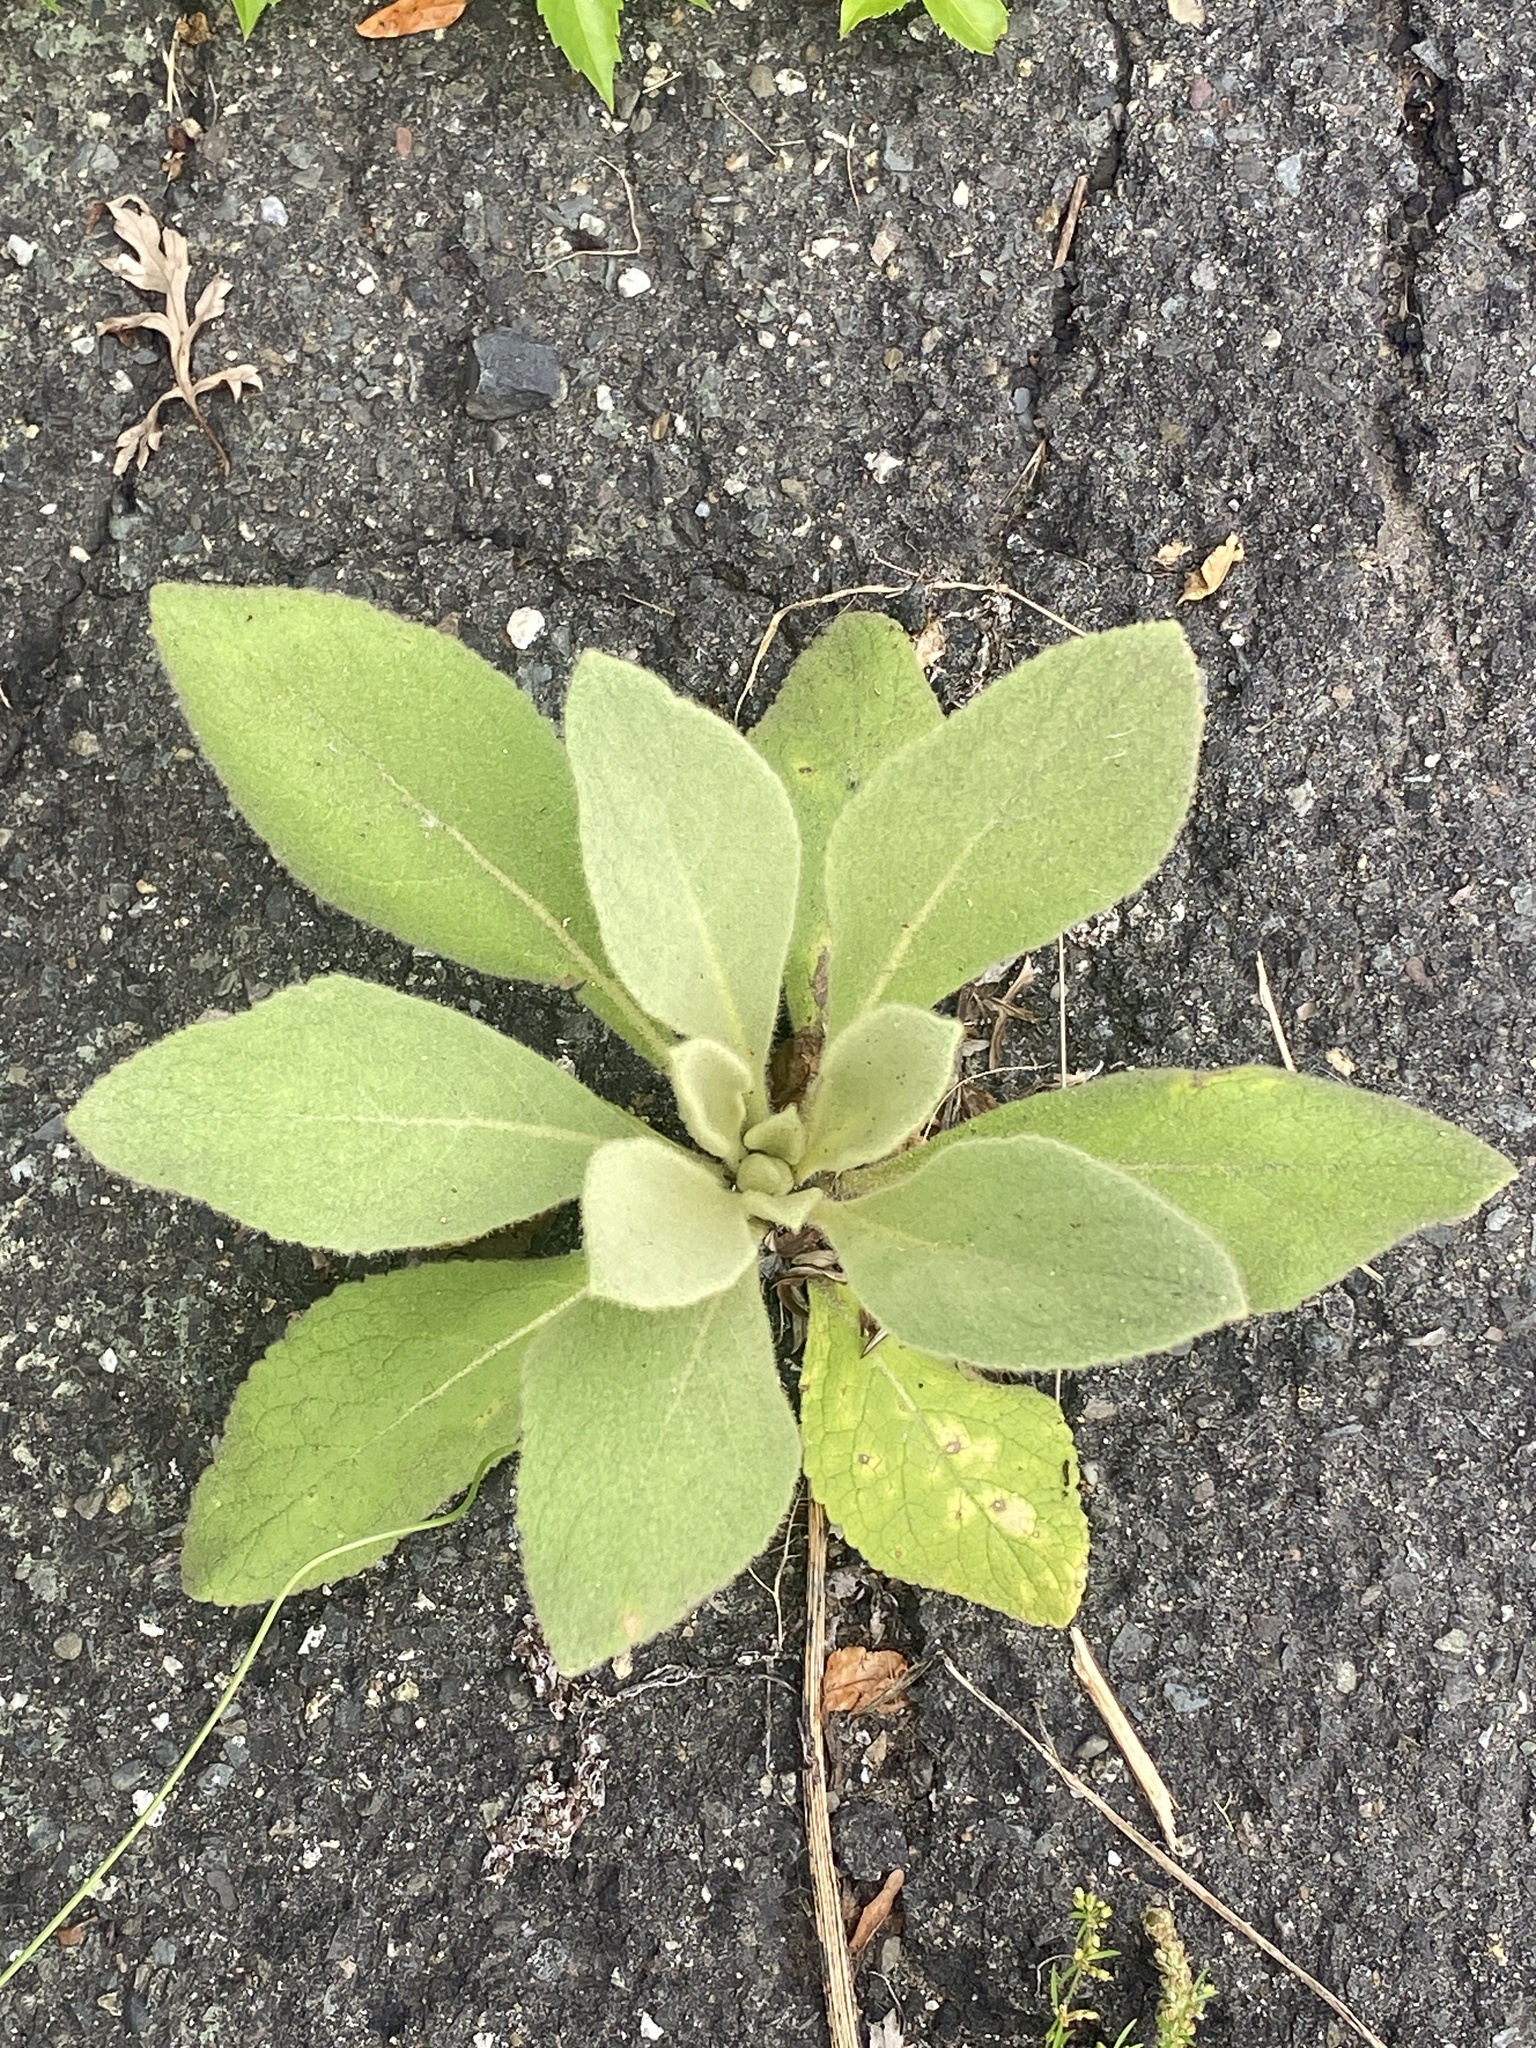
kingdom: Plantae
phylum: Tracheophyta
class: Magnoliopsida
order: Lamiales
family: Scrophulariaceae
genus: Verbascum
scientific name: Verbascum thapsus
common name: Common mullein
